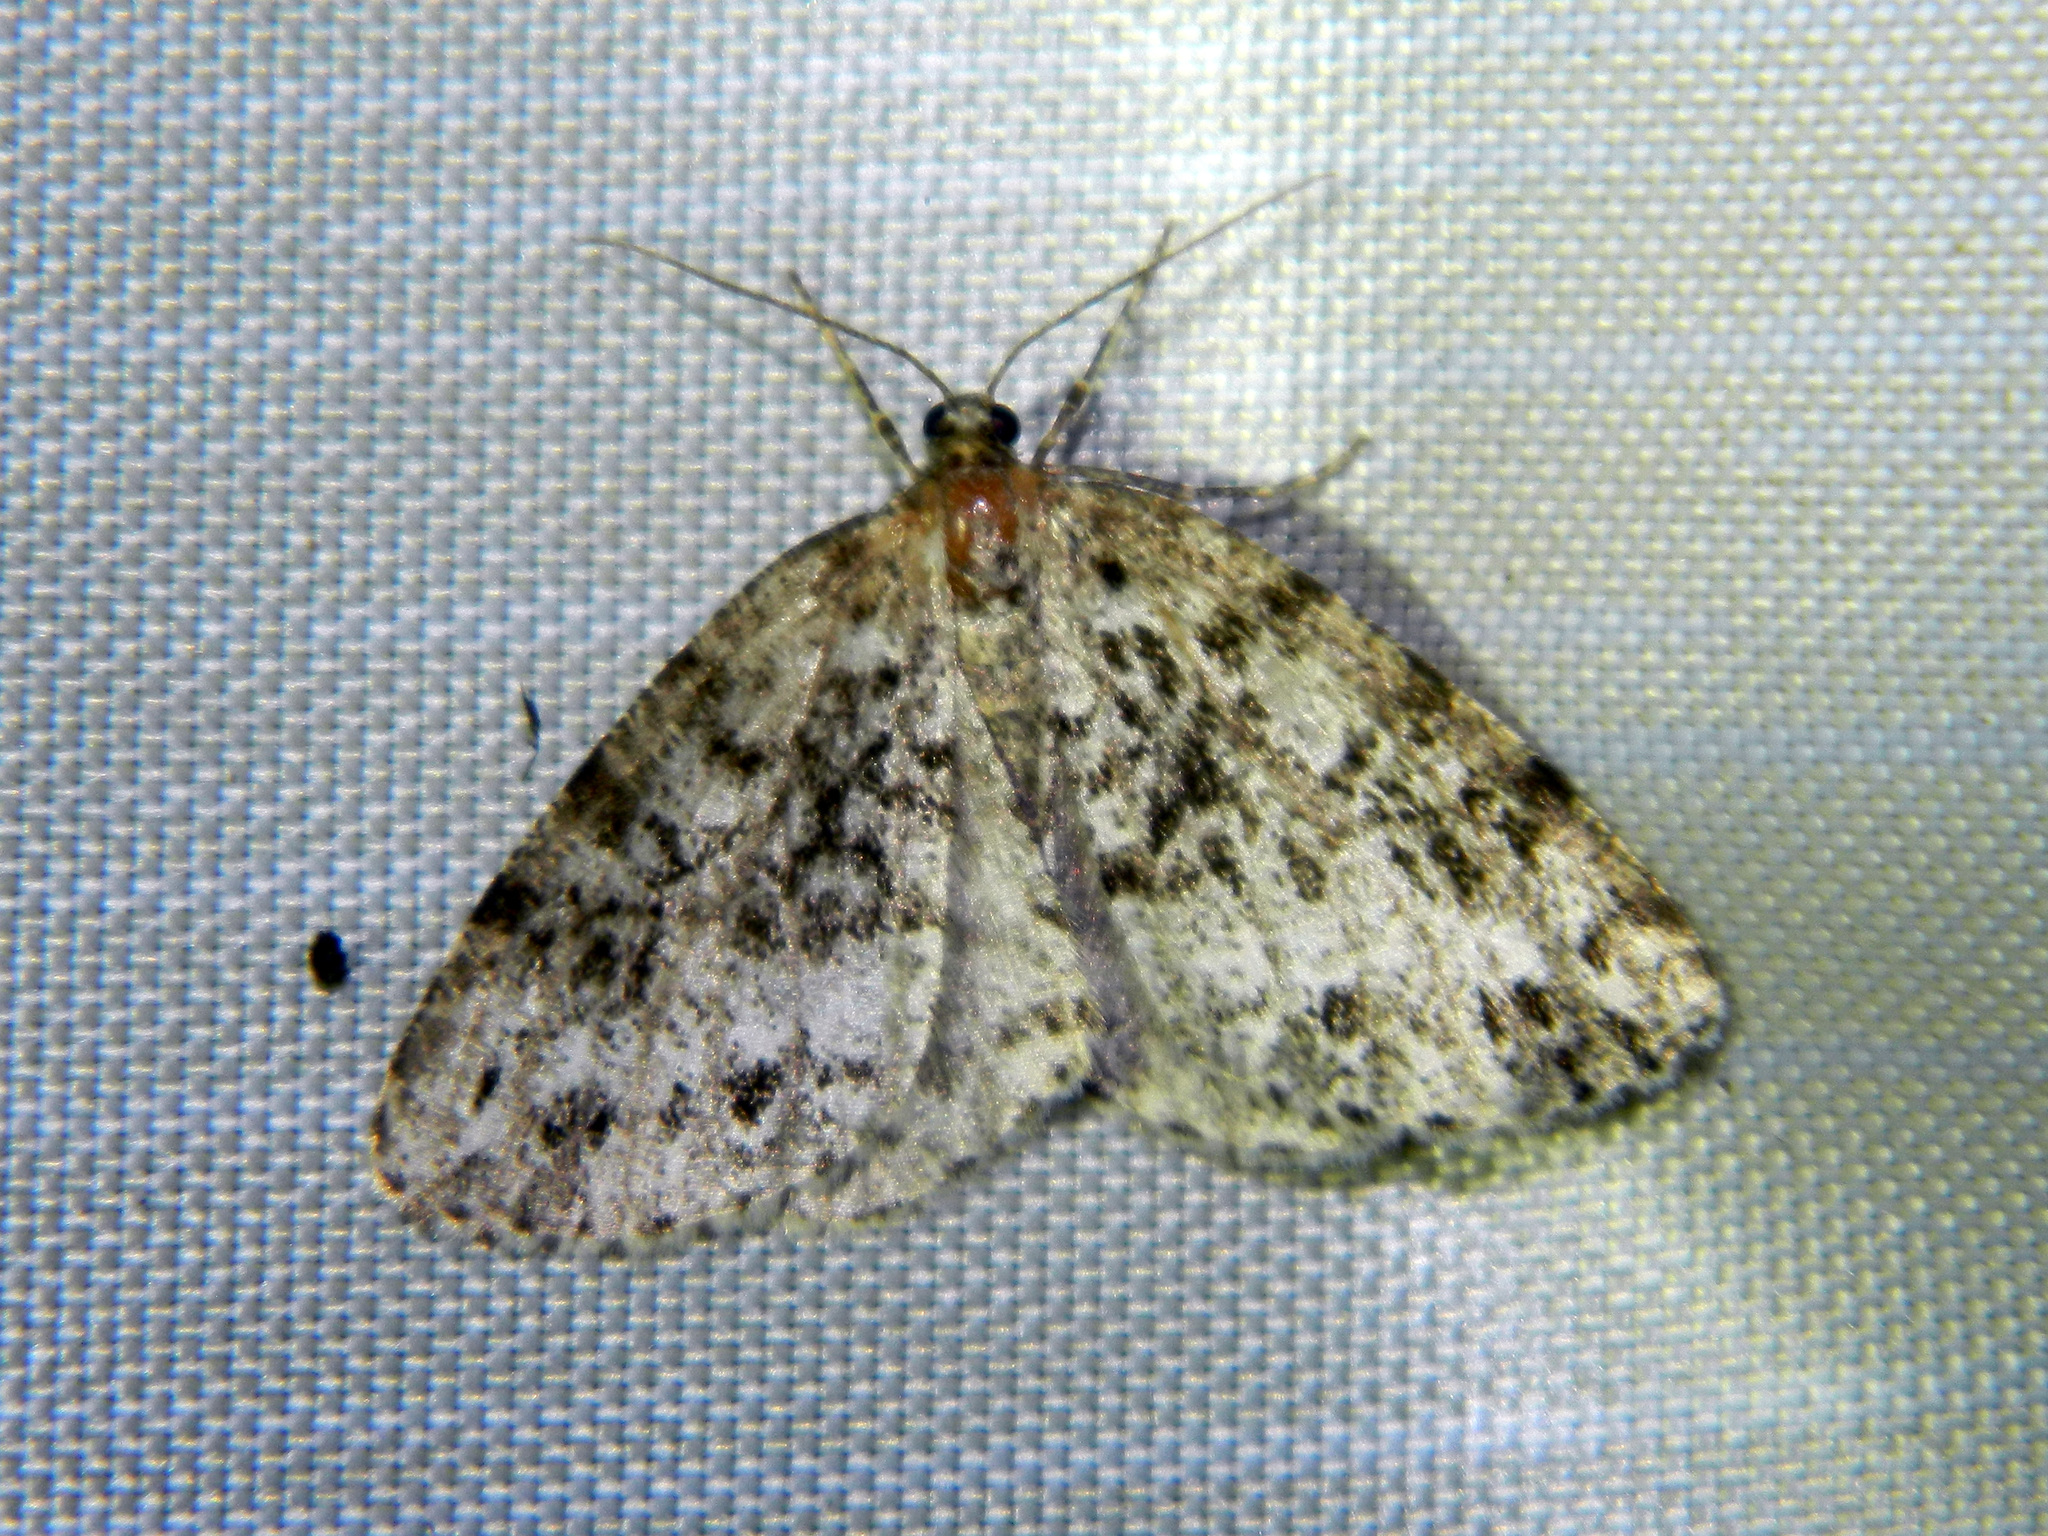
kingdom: Animalia
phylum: Arthropoda
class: Insecta
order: Lepidoptera
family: Geometridae
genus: Orthofidonia
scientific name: Orthofidonia exornata
